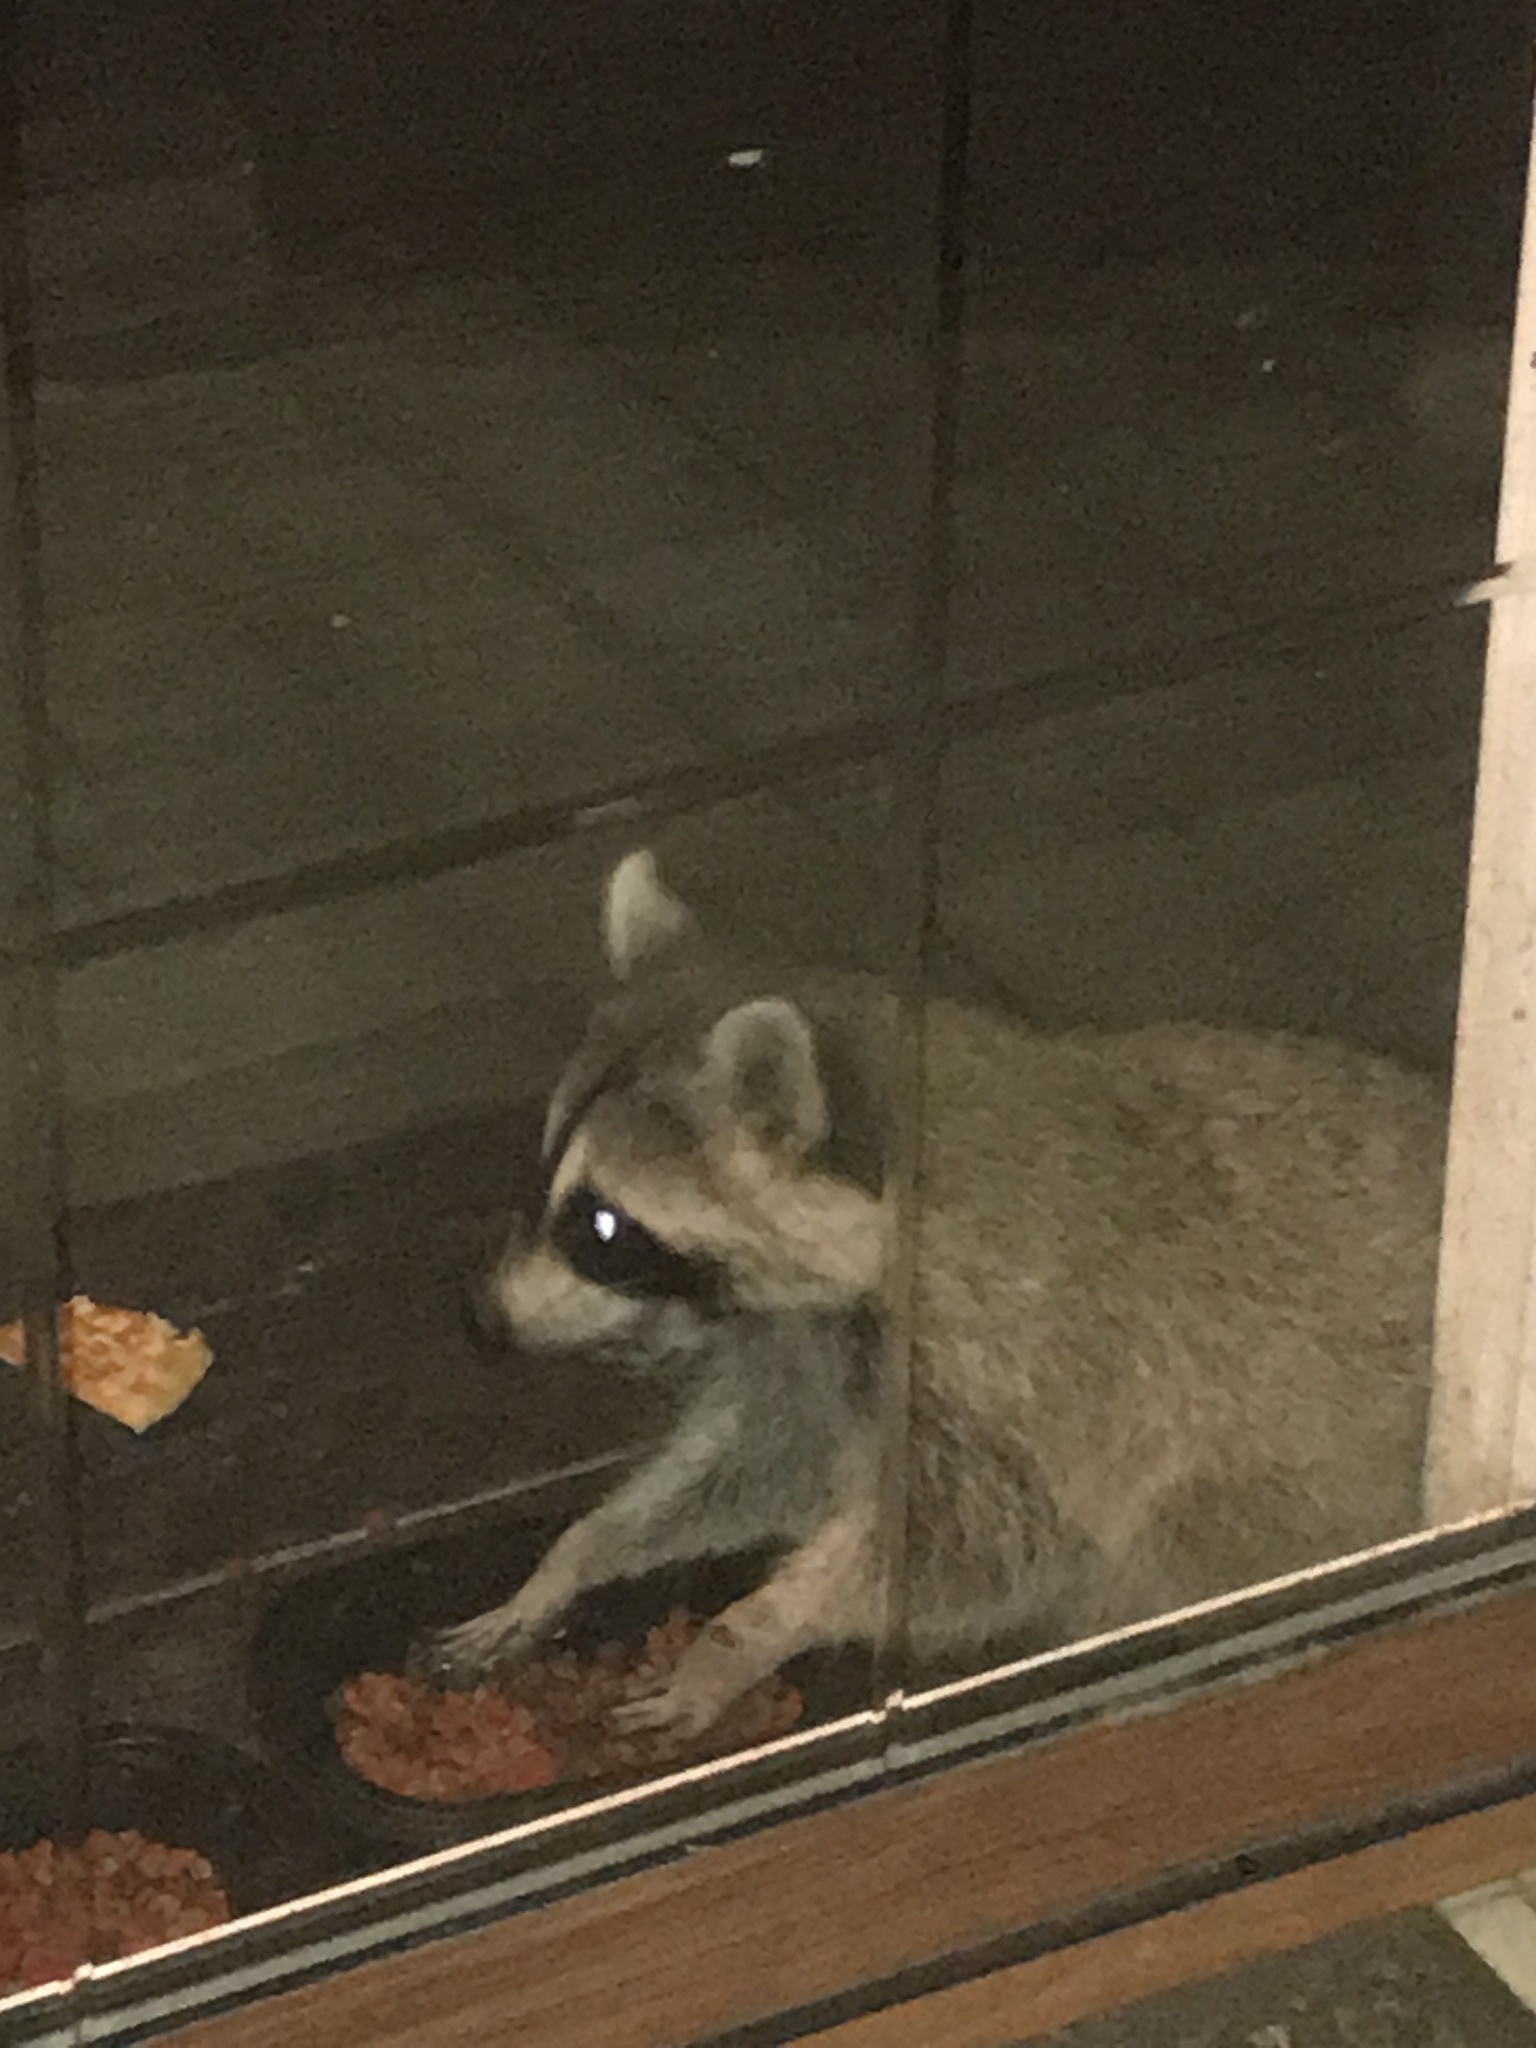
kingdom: Animalia
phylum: Chordata
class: Mammalia
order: Carnivora
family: Procyonidae
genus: Procyon
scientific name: Procyon lotor
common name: Raccoon
